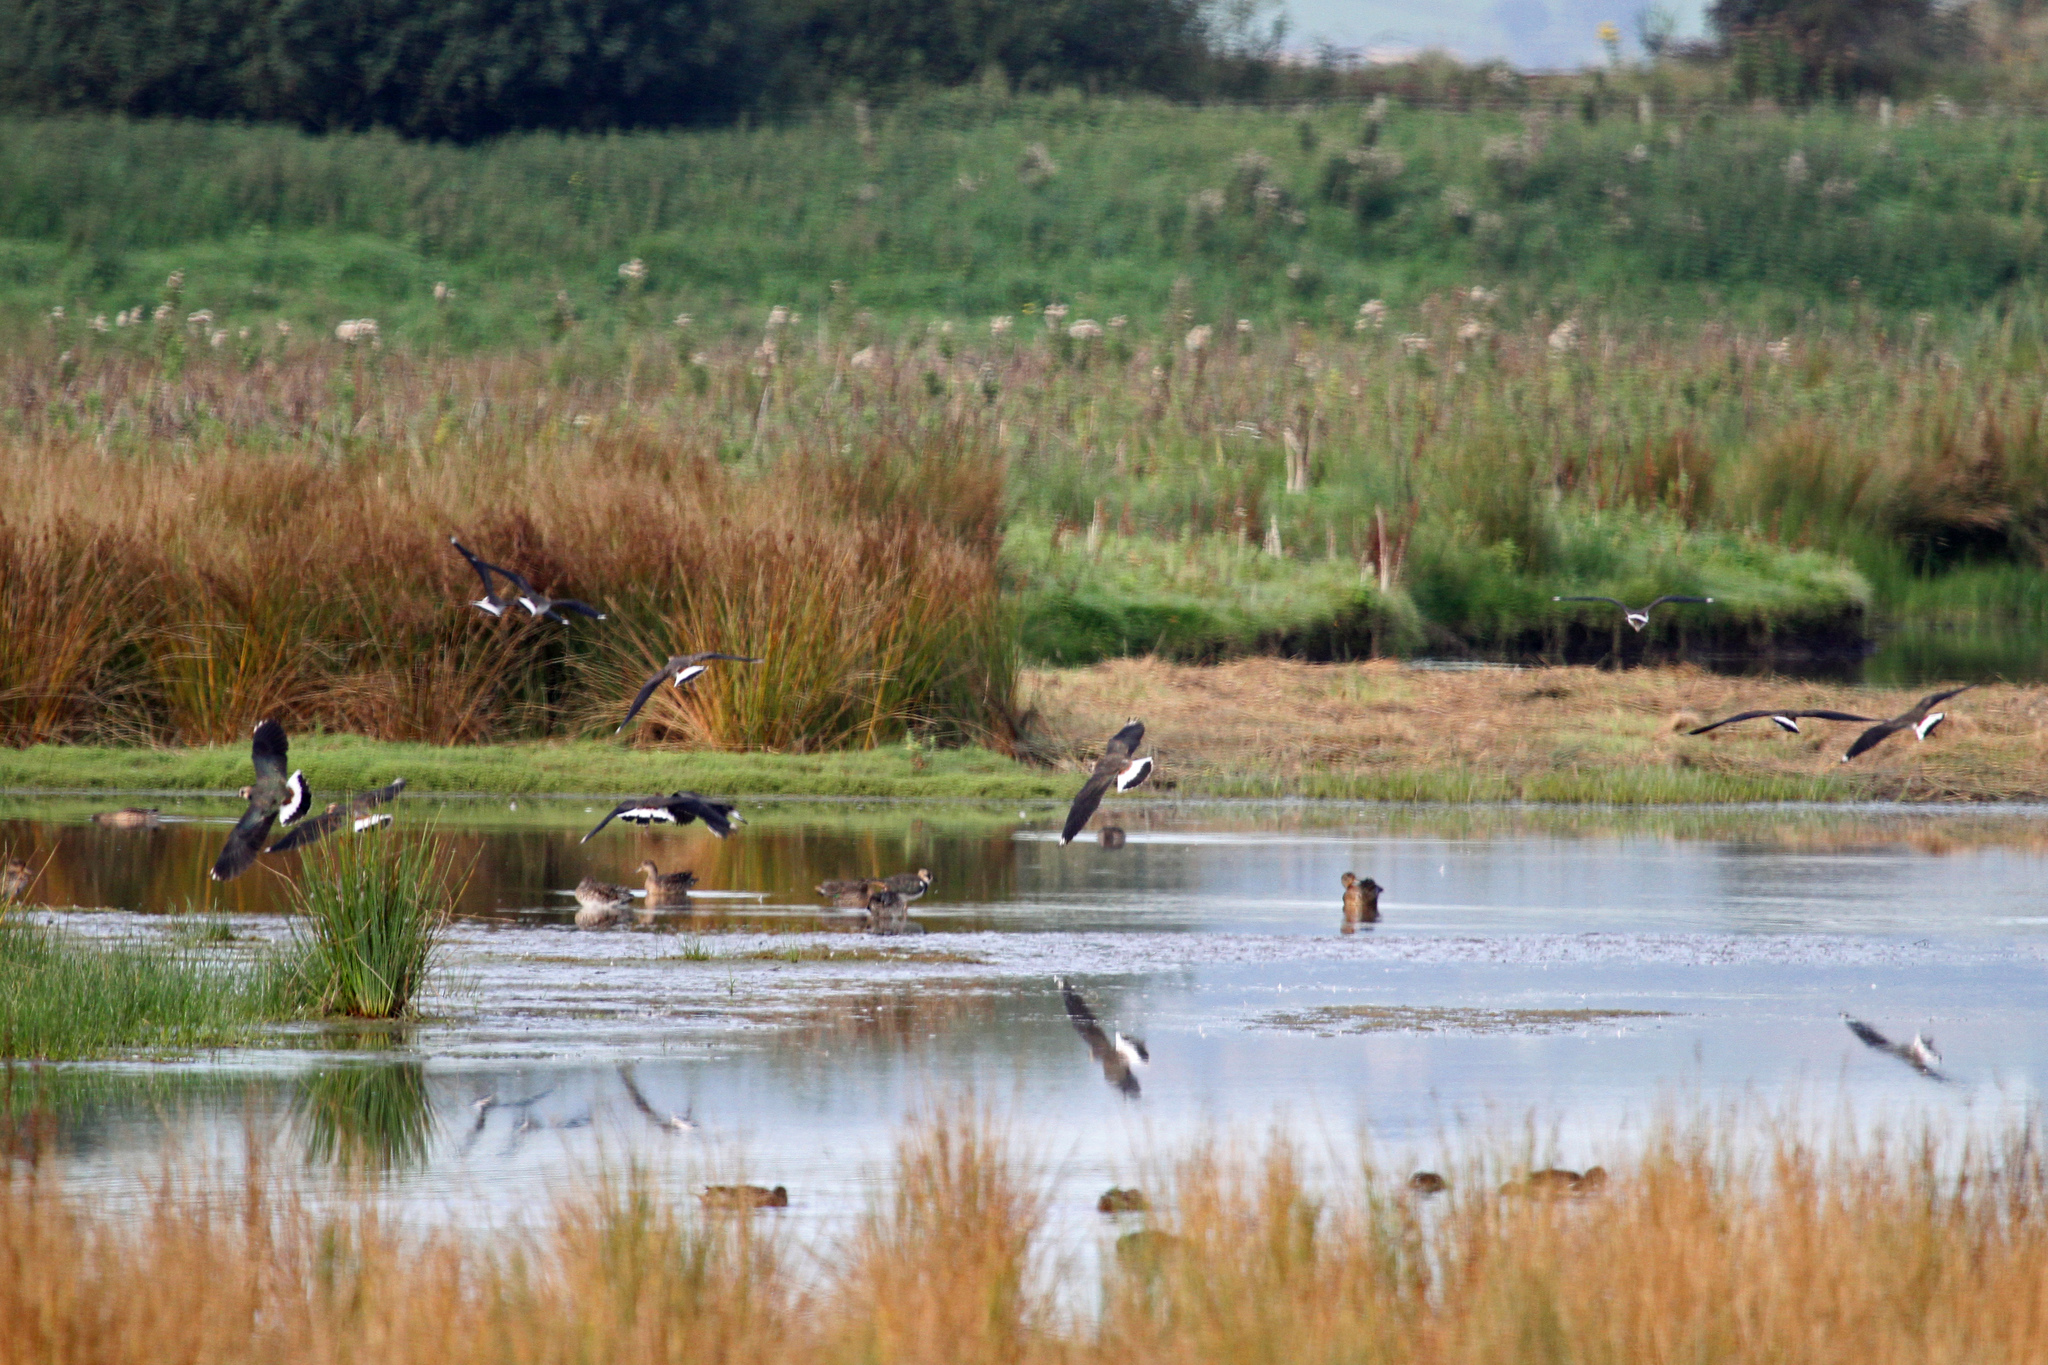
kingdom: Animalia
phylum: Chordata
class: Aves
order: Charadriiformes
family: Charadriidae
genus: Vanellus
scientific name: Vanellus vanellus
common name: Northern lapwing
